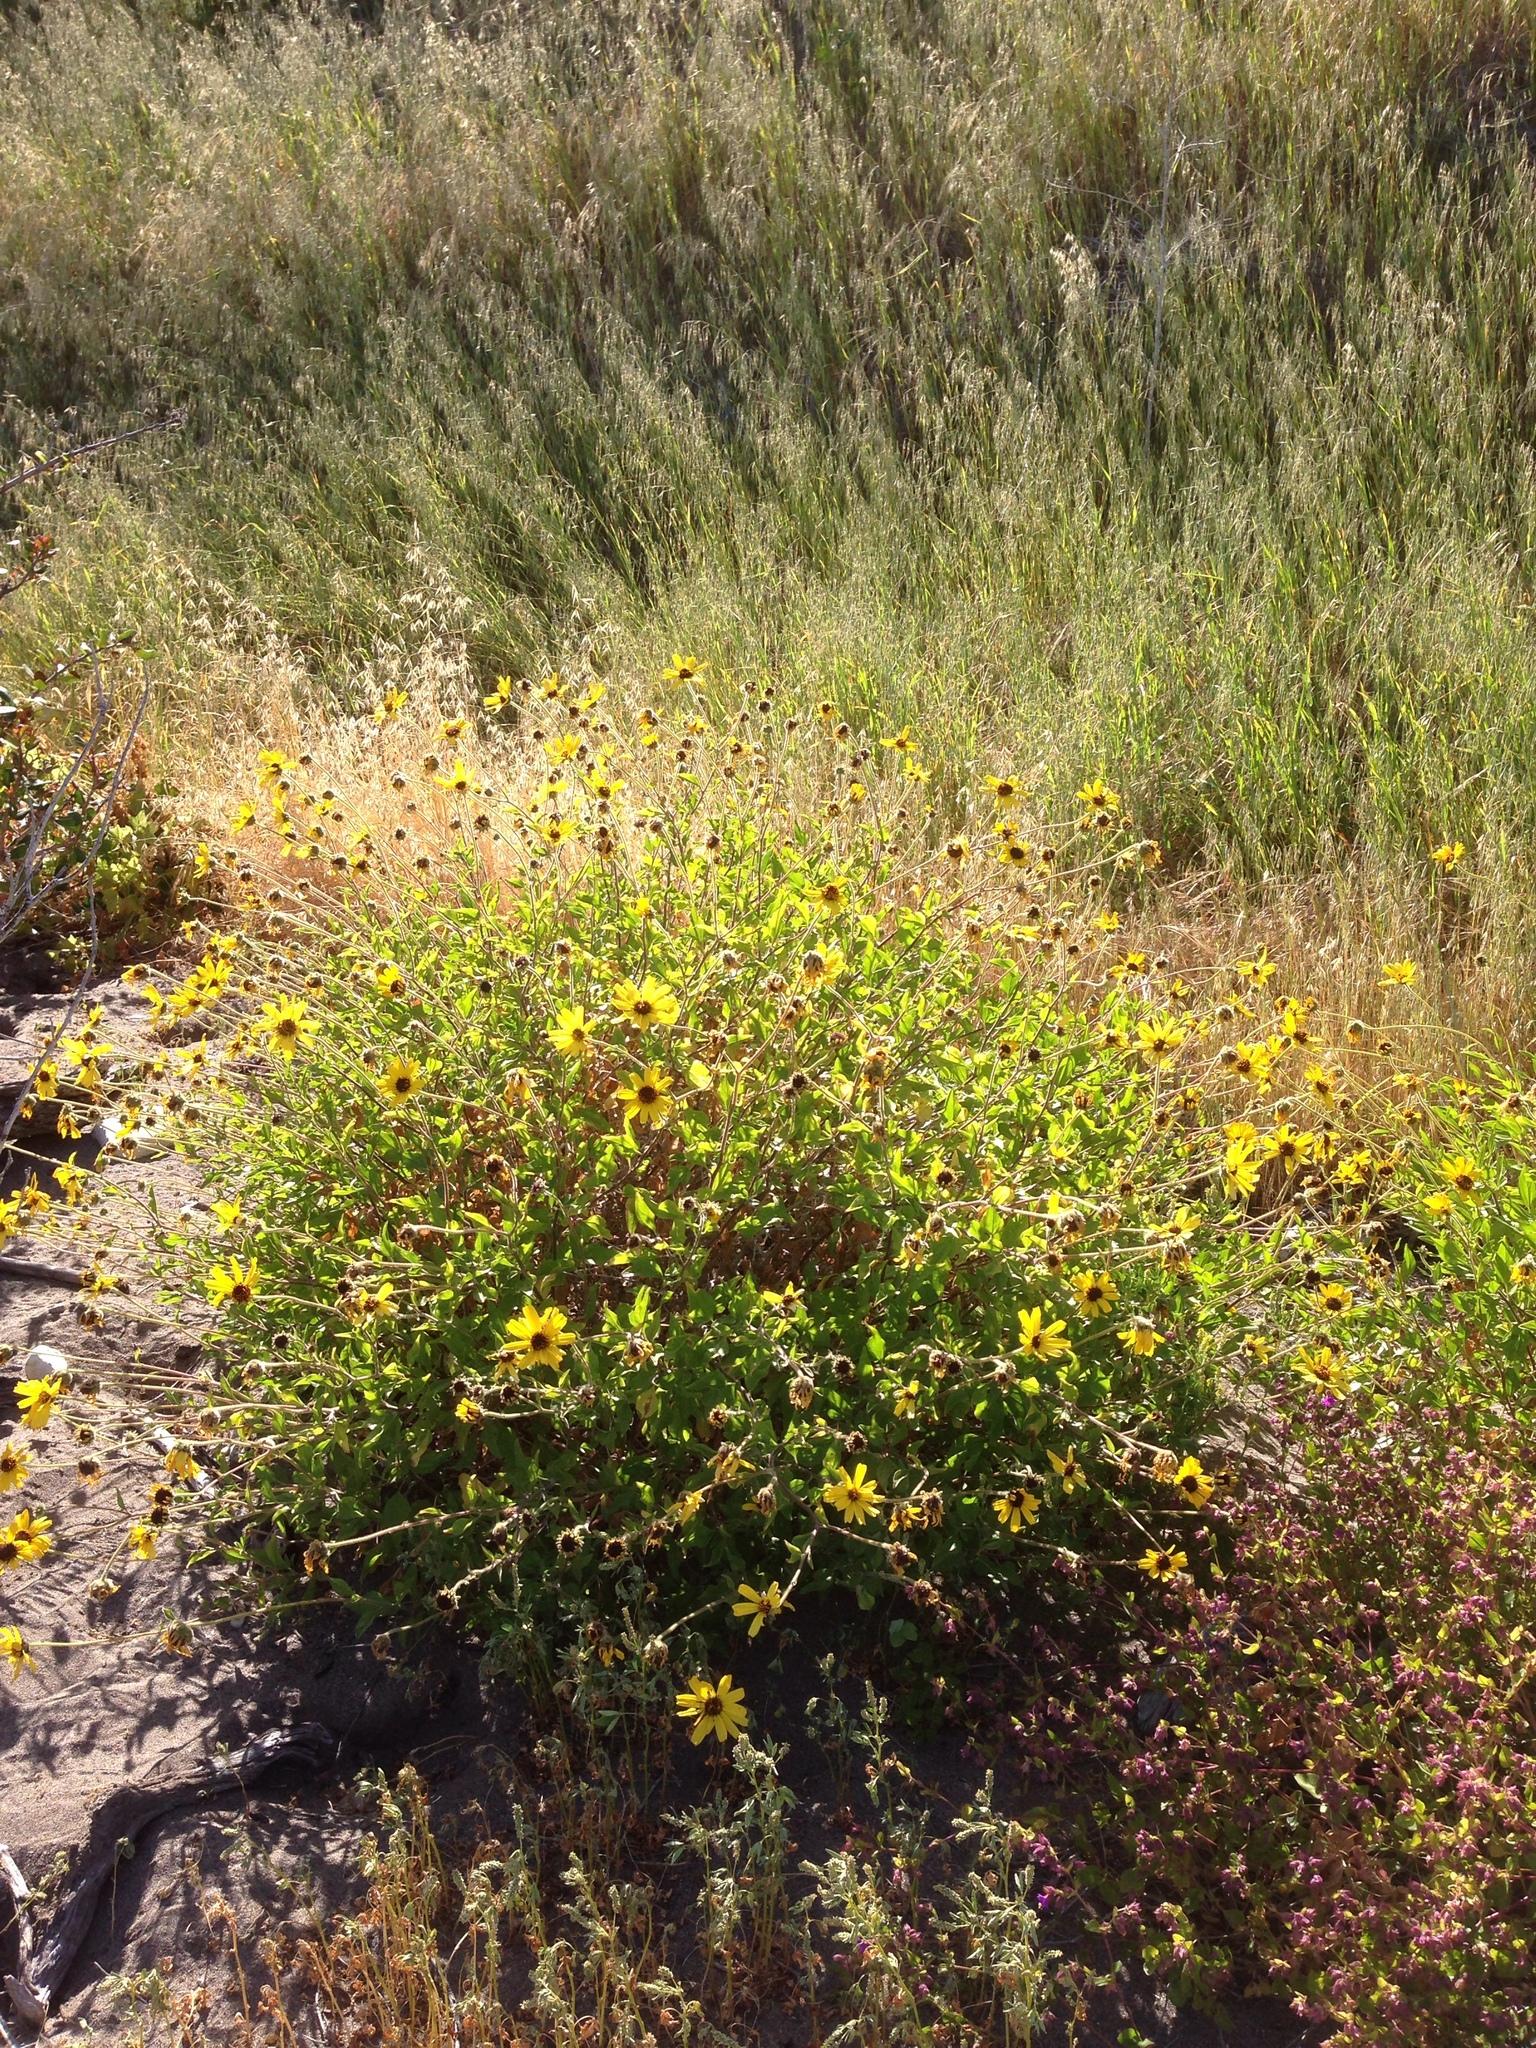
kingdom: Plantae
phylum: Tracheophyta
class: Magnoliopsida
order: Asterales
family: Asteraceae
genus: Encelia
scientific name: Encelia californica
